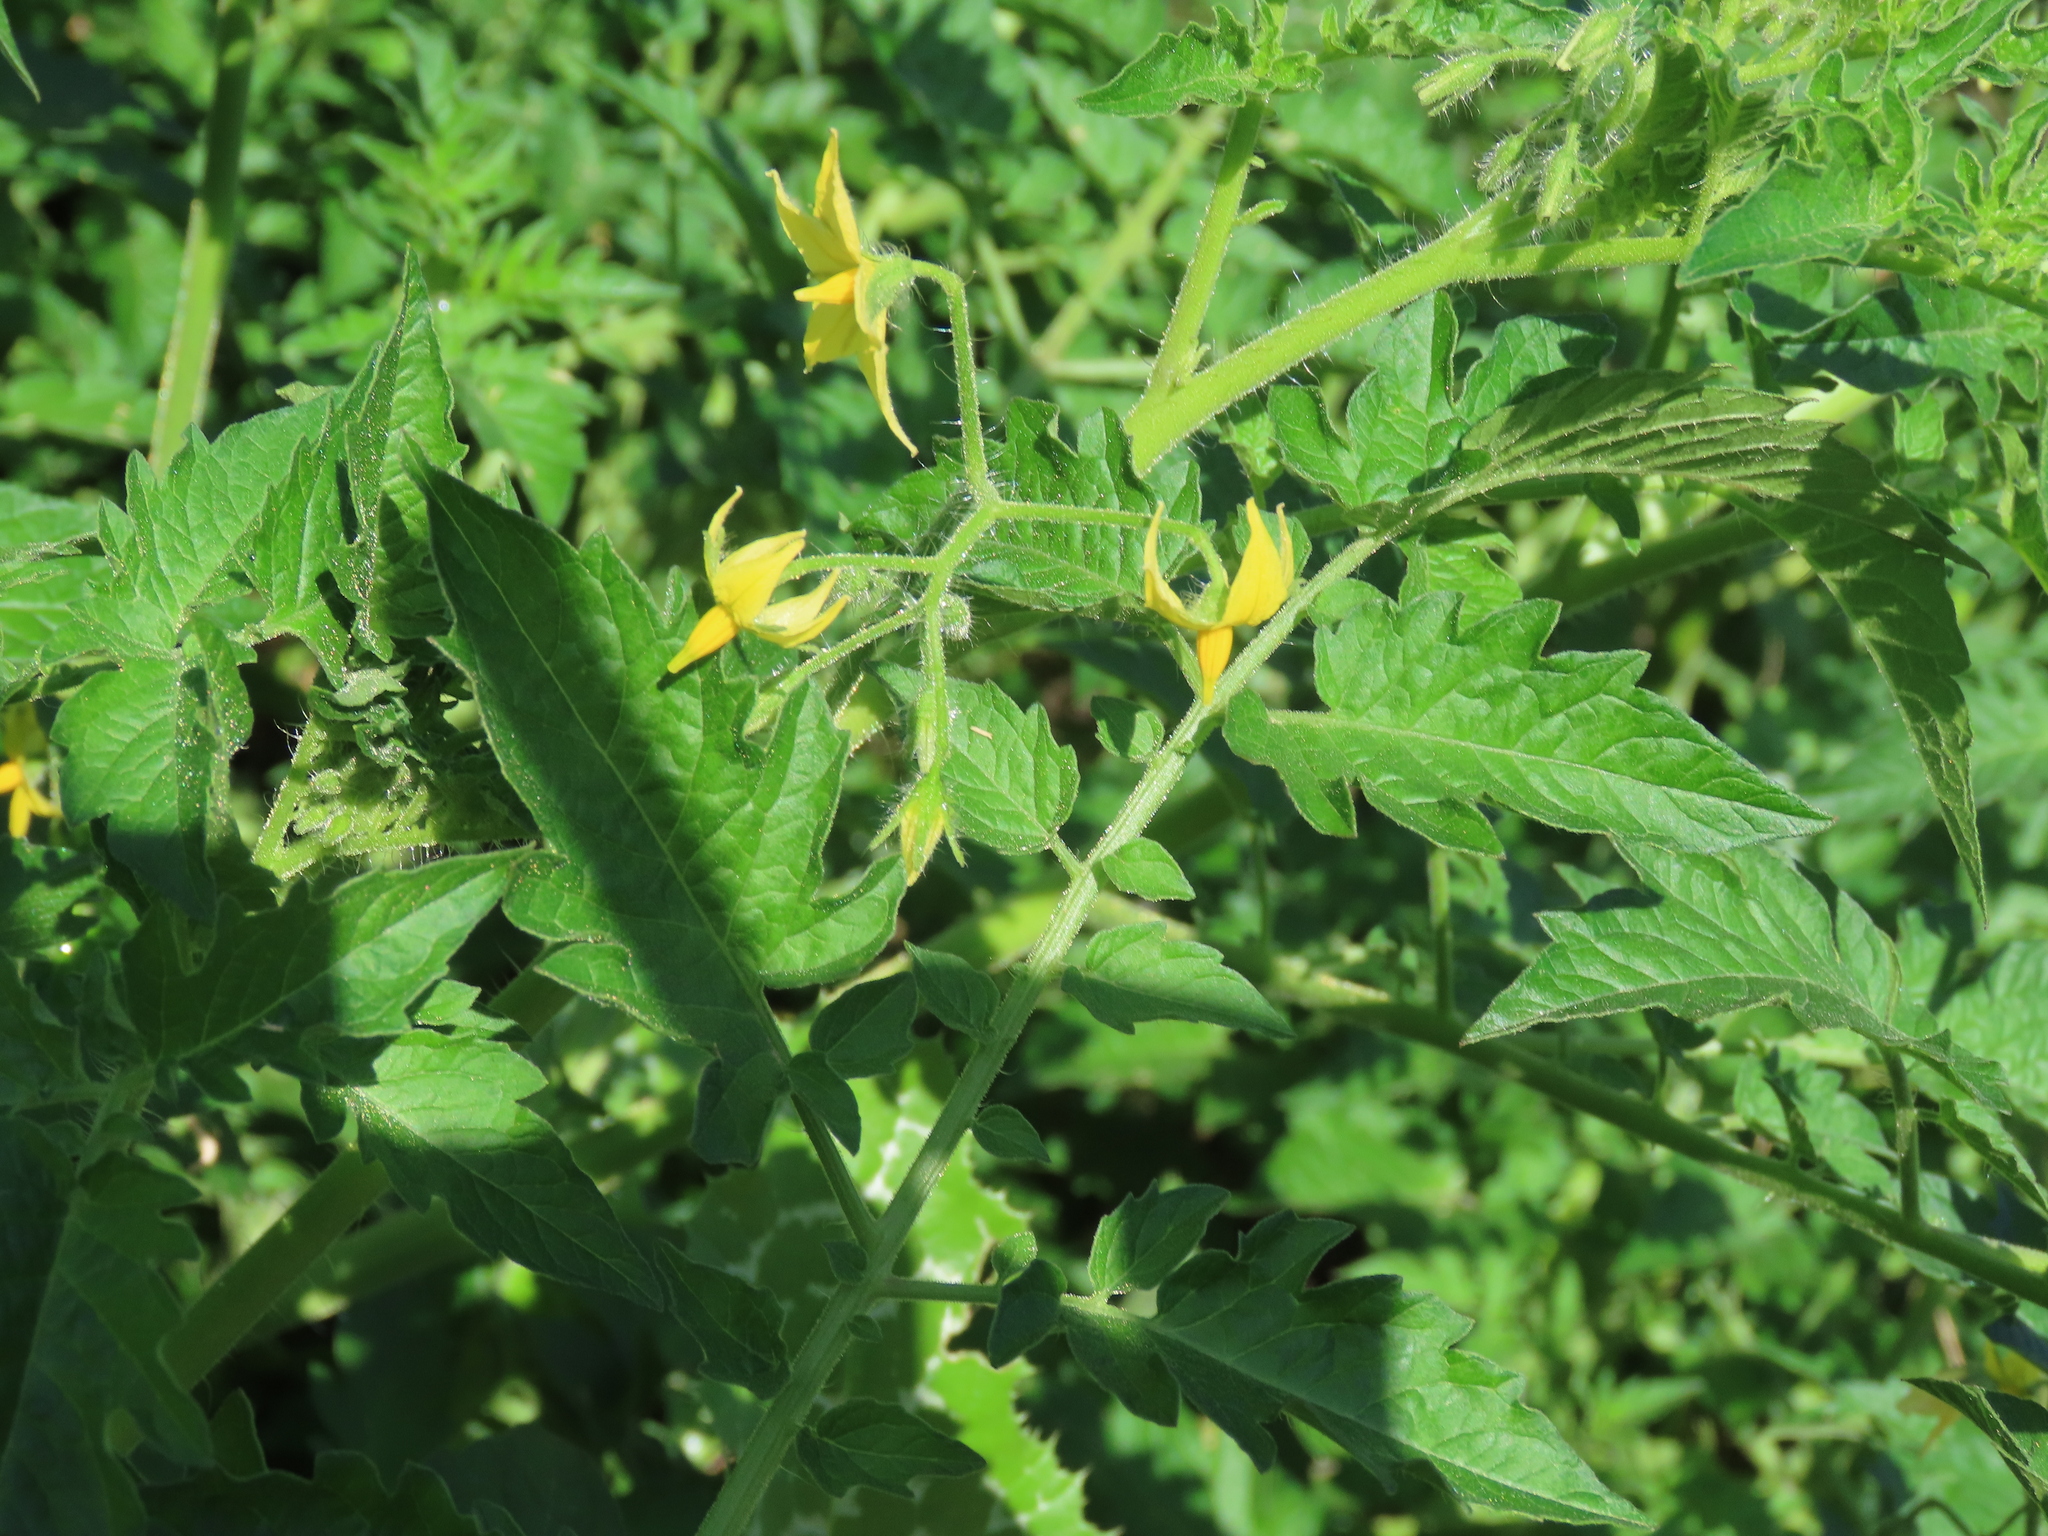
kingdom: Plantae
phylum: Tracheophyta
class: Magnoliopsida
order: Solanales
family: Solanaceae
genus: Solanum
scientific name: Solanum lycopersicum
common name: Garden tomato
